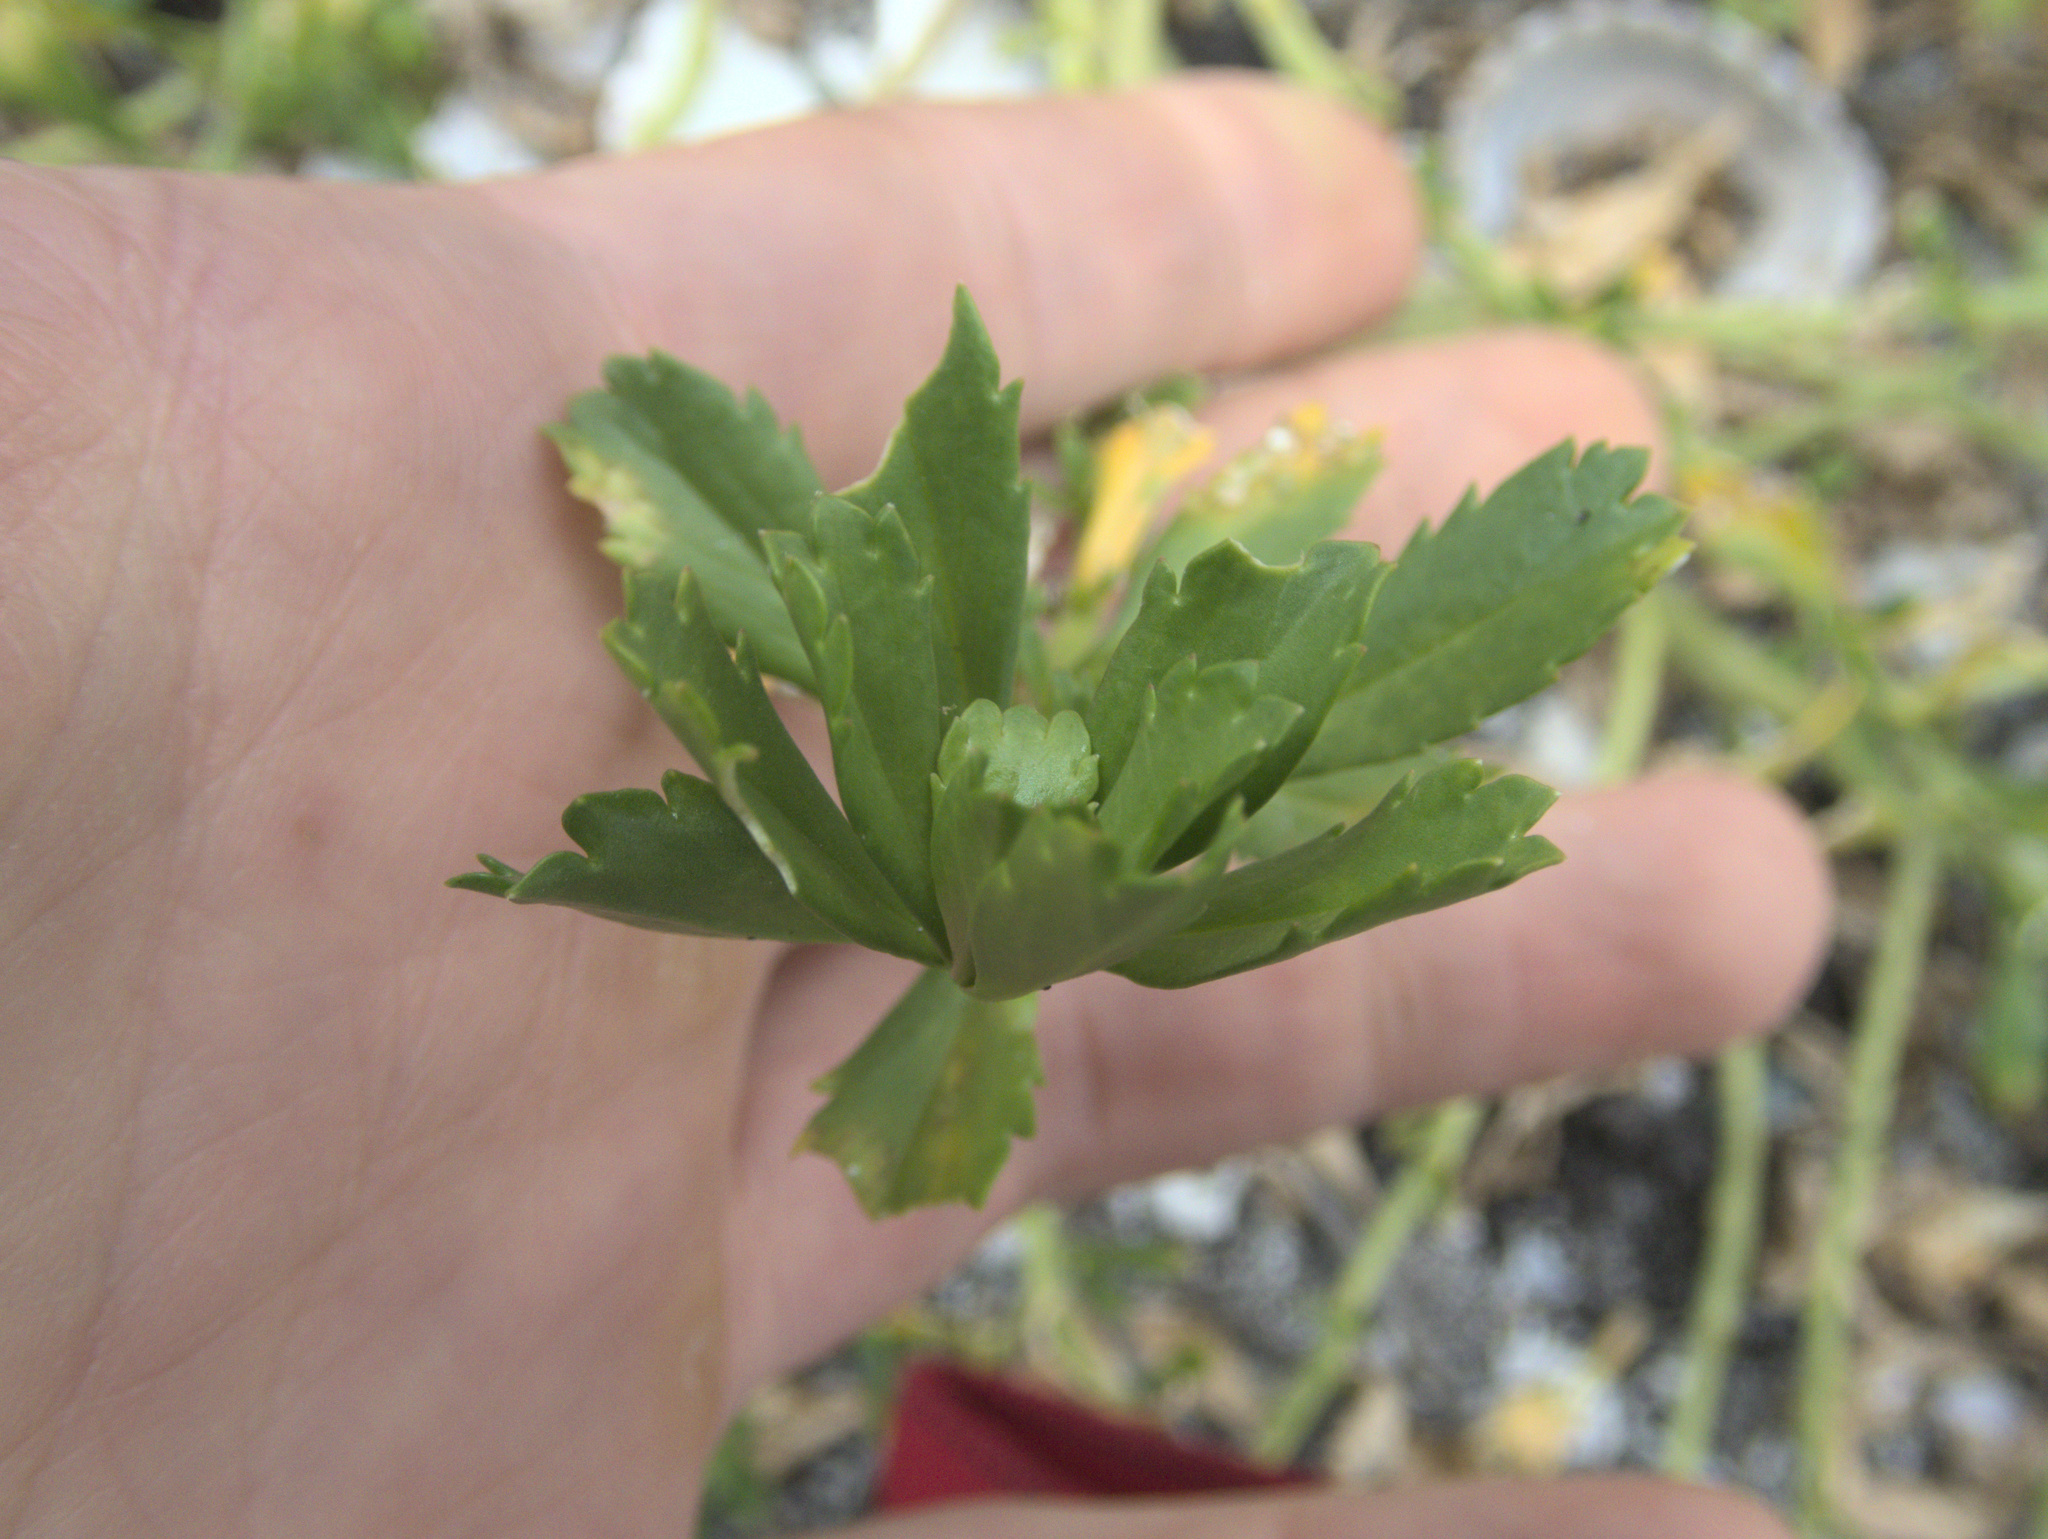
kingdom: Plantae
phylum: Tracheophyta
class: Magnoliopsida
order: Brassicales
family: Brassicaceae
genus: Lepidium
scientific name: Lepidium rekohuense
